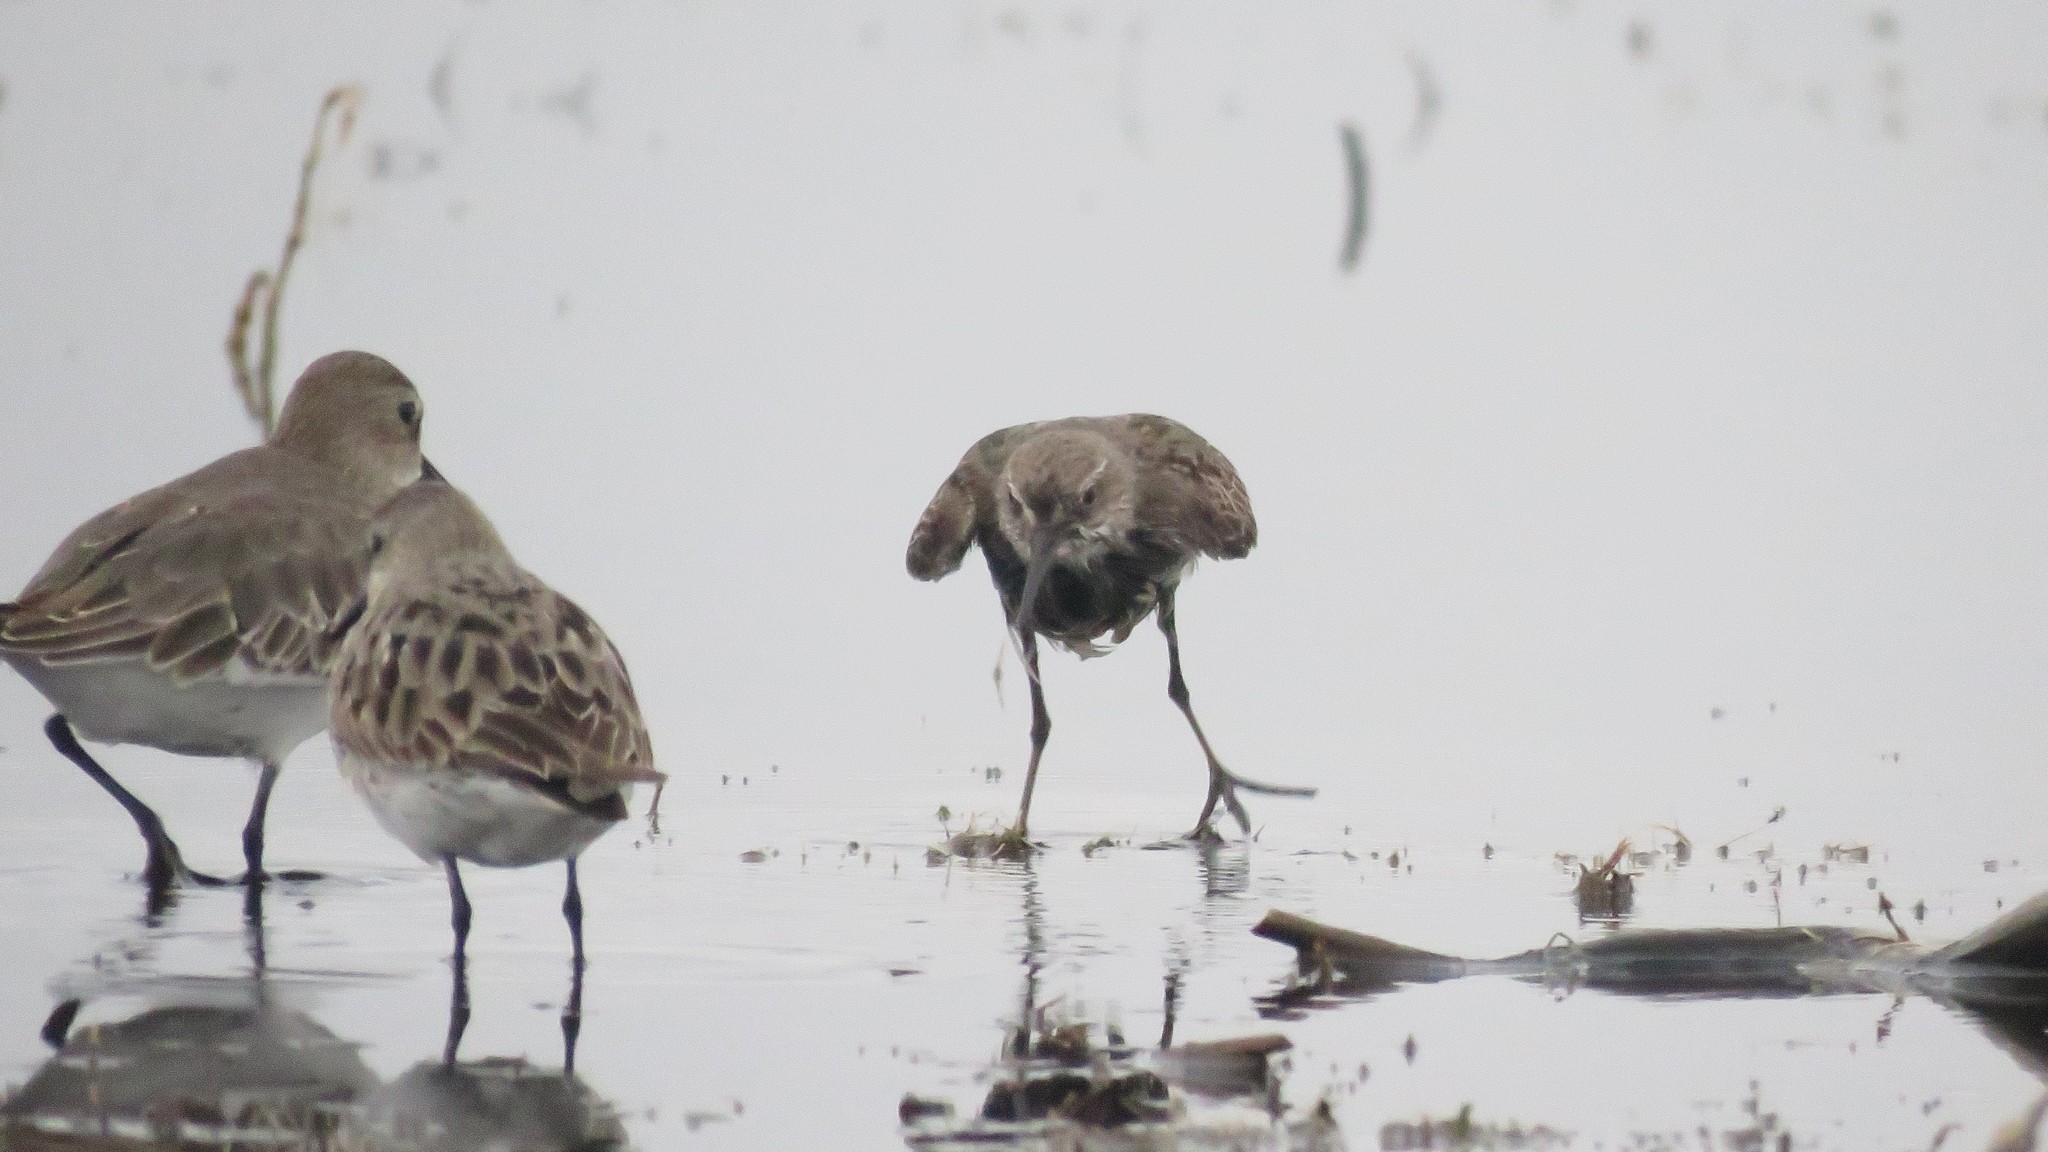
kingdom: Animalia
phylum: Chordata
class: Aves
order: Charadriiformes
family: Scolopacidae
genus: Calidris
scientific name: Calidris fuscicollis
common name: White-rumped sandpiper
